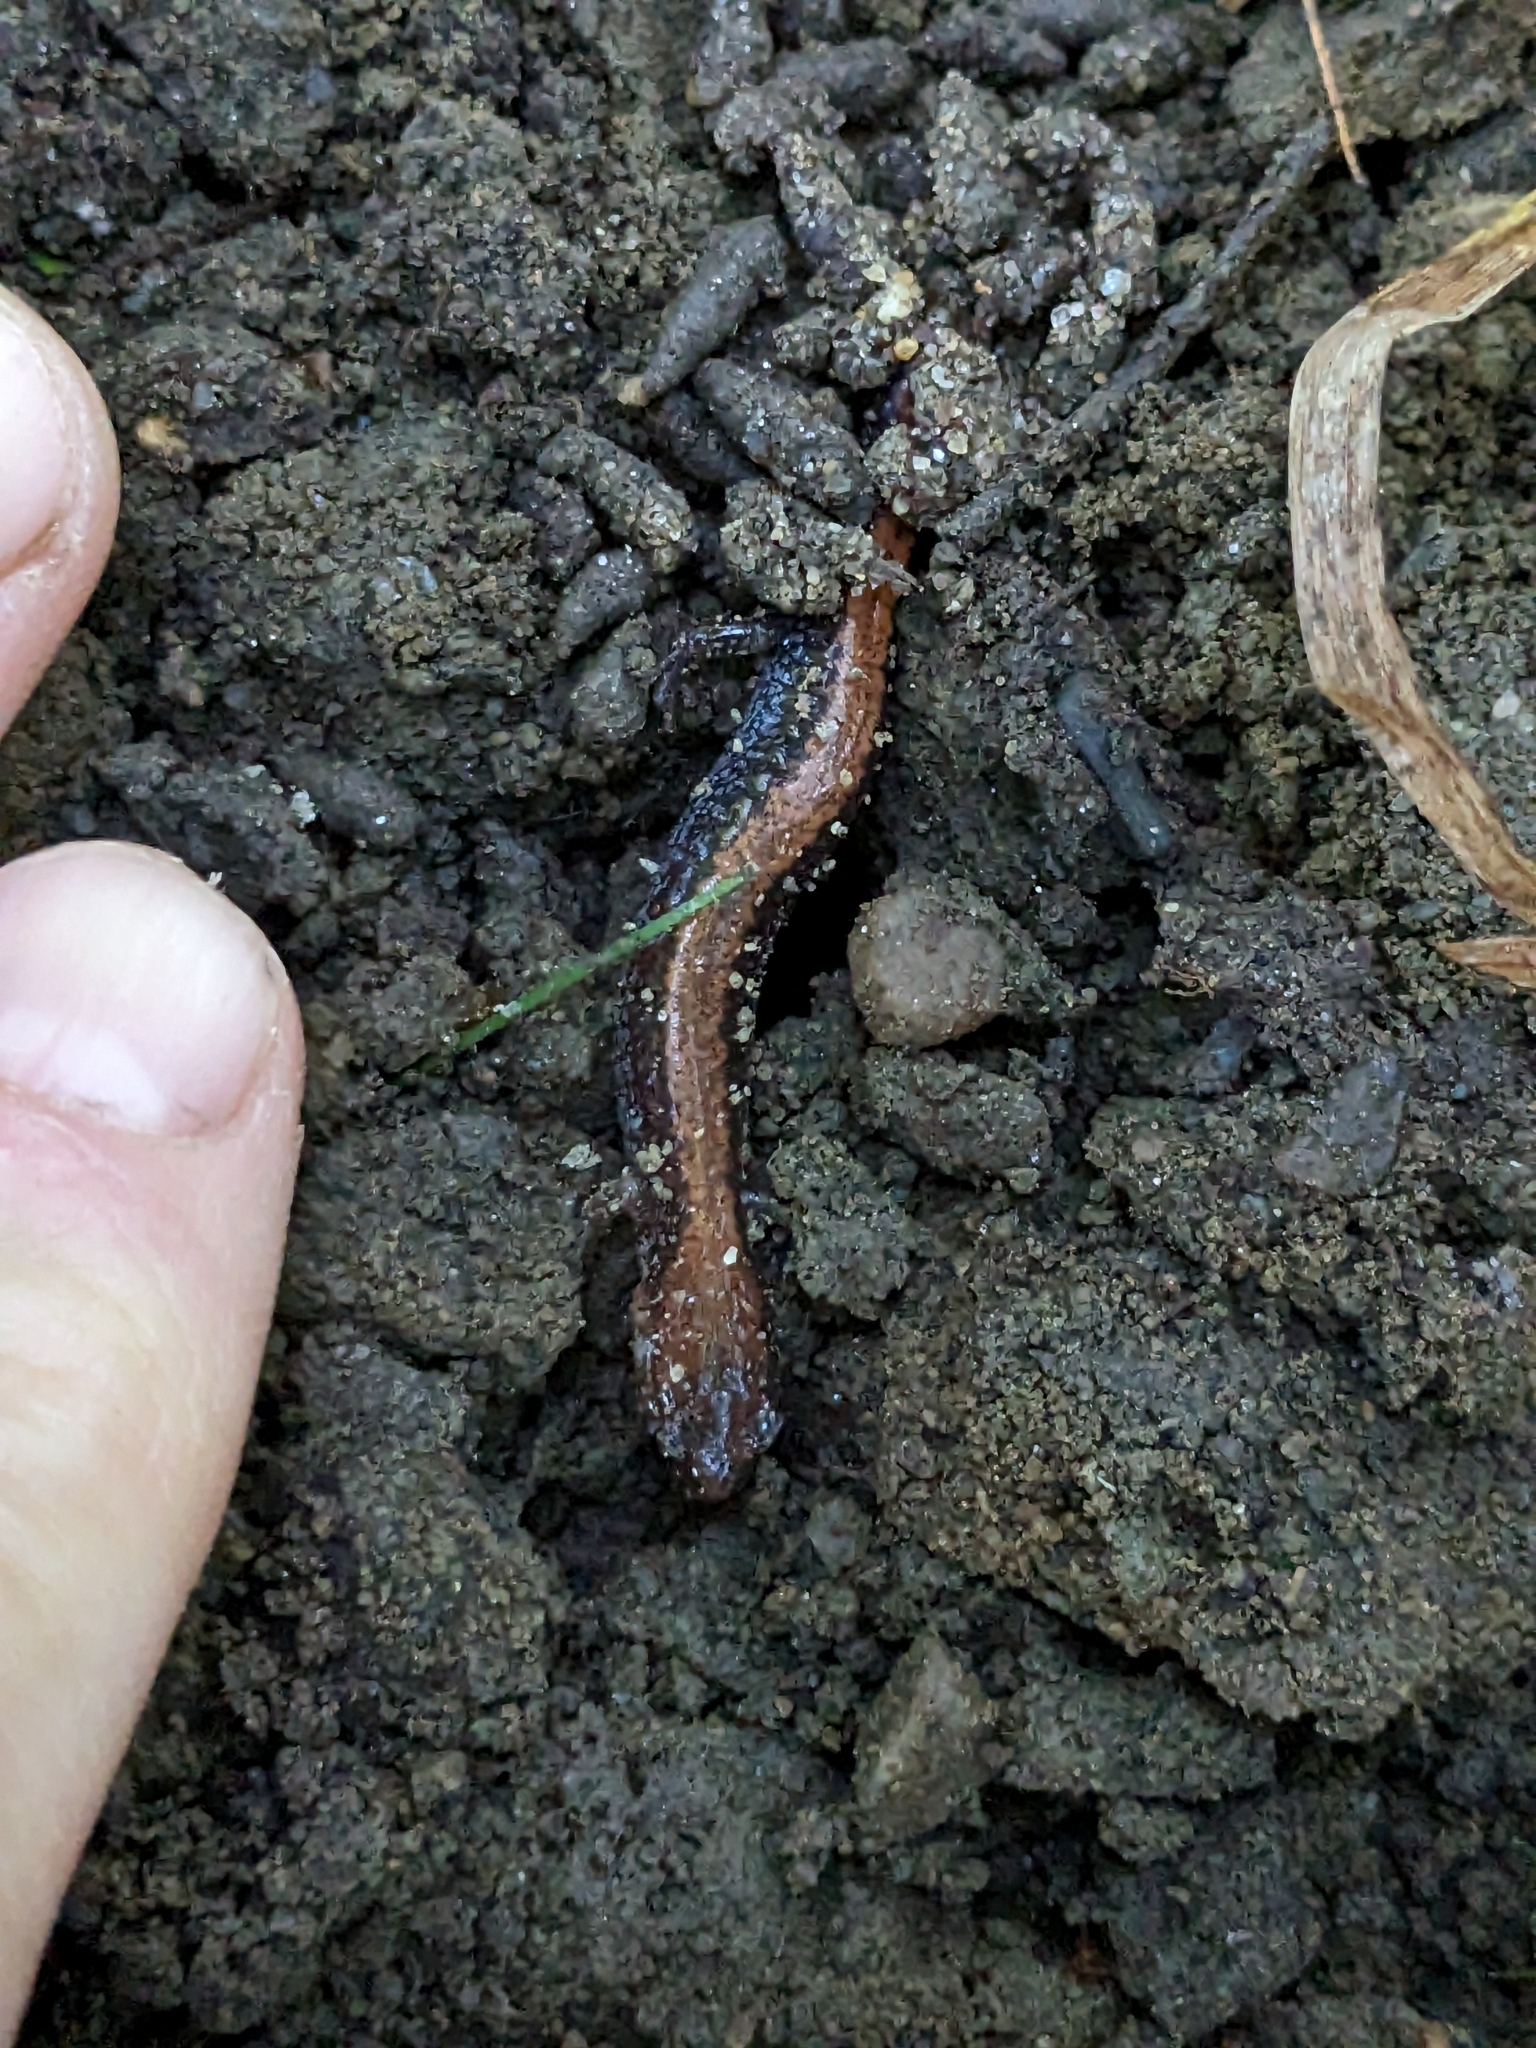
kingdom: Animalia
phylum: Chordata
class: Amphibia
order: Caudata
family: Plethodontidae
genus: Plethodon
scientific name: Plethodon cinereus
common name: Redback salamander
